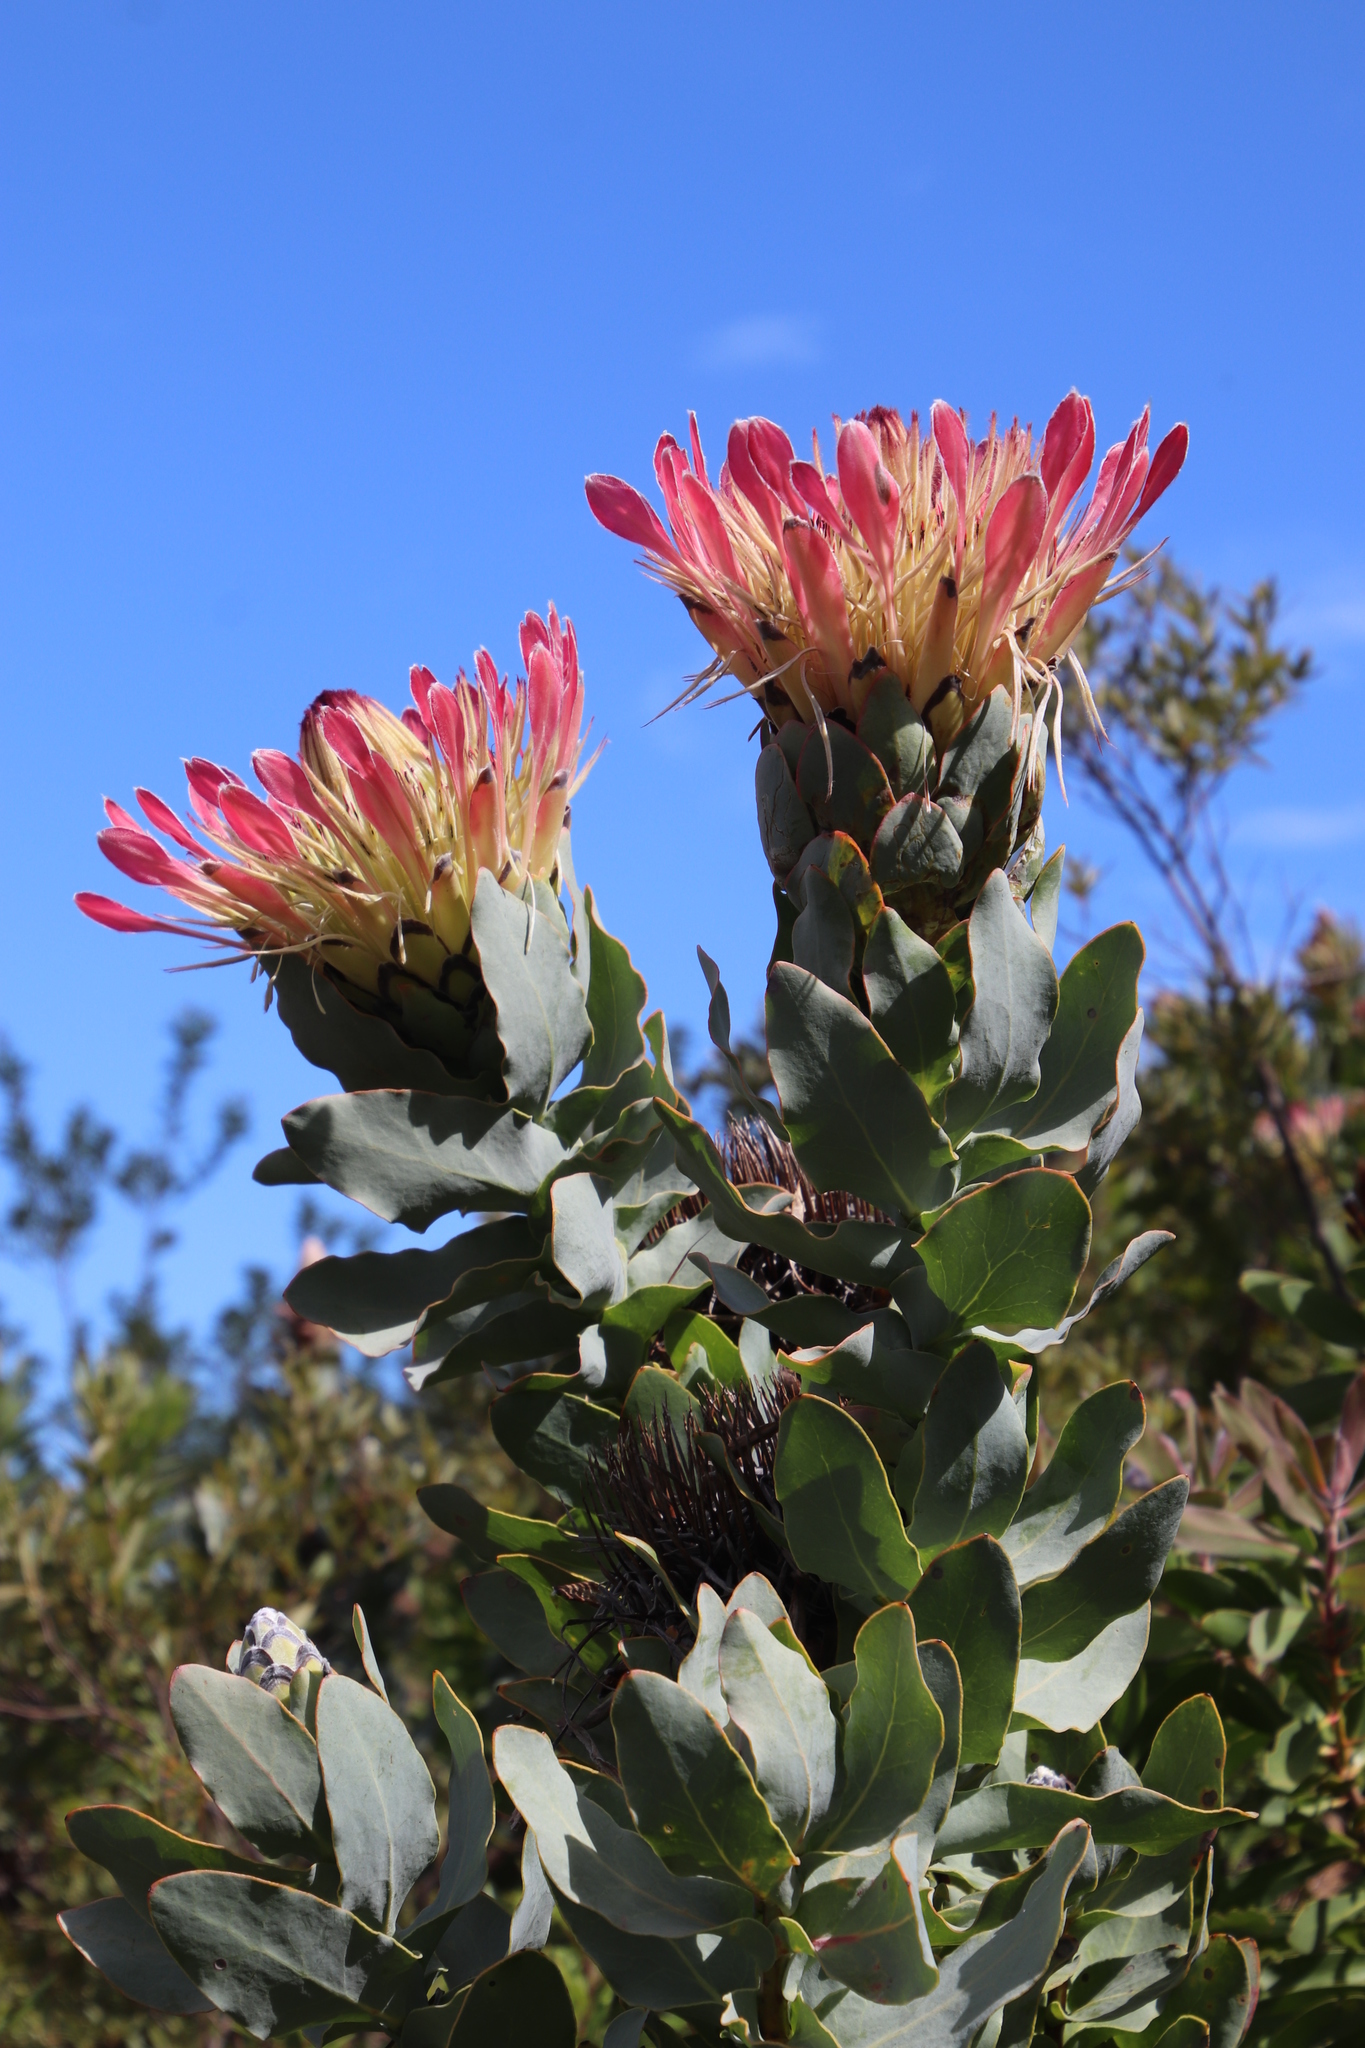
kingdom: Plantae
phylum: Tracheophyta
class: Magnoliopsida
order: Proteales
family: Proteaceae
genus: Protea
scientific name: Protea eximia
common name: Broad-leaved sugarbush
